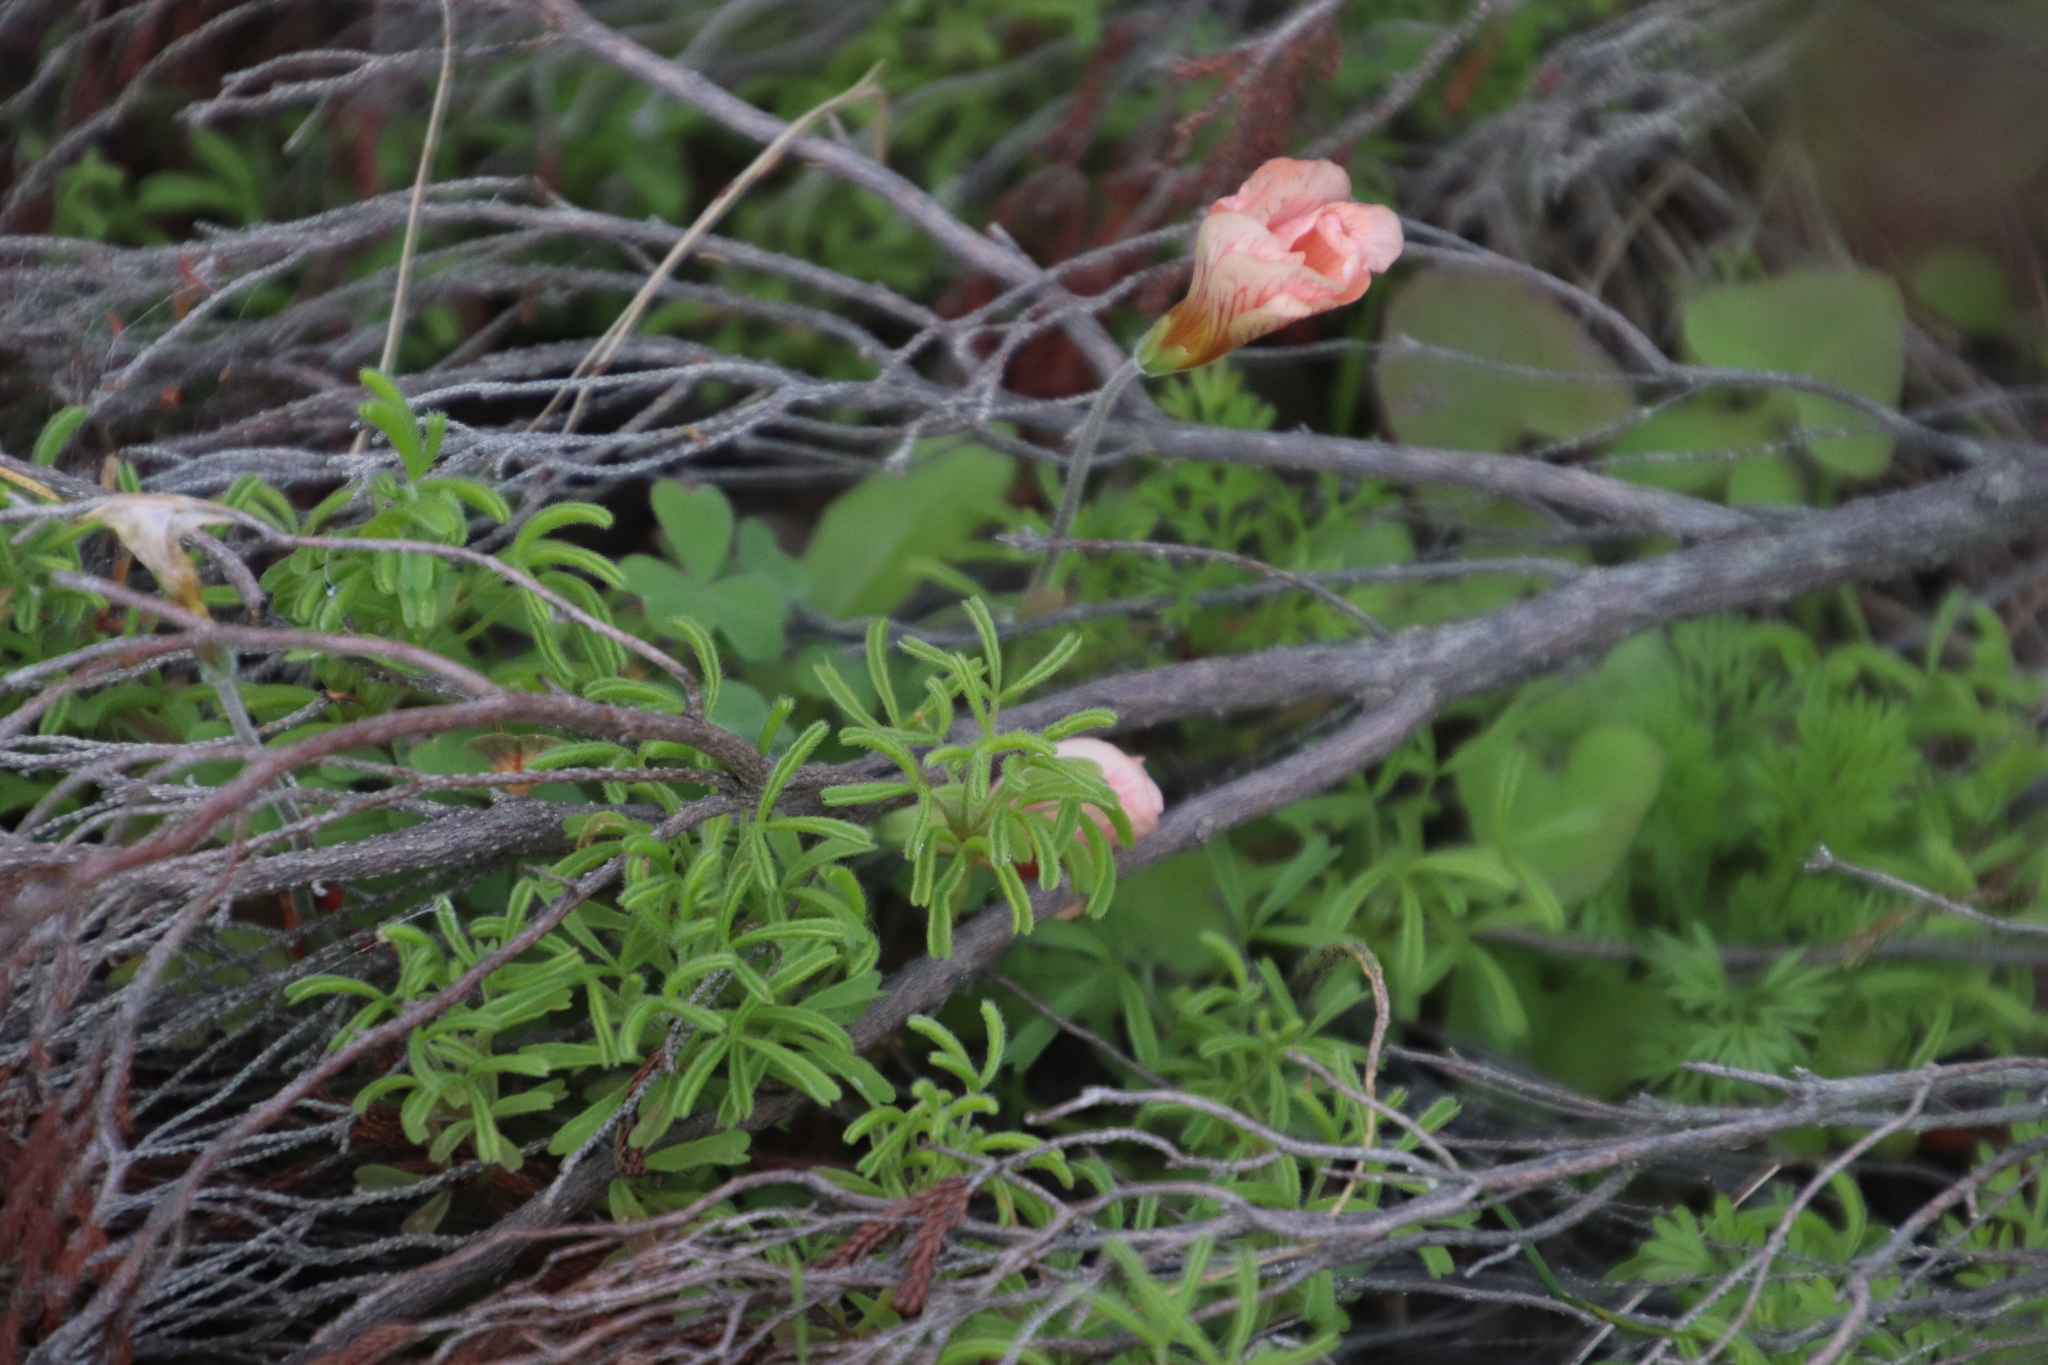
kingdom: Plantae
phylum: Tracheophyta
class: Magnoliopsida
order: Oxalidales
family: Oxalidaceae
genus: Oxalis
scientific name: Oxalis obtusa
